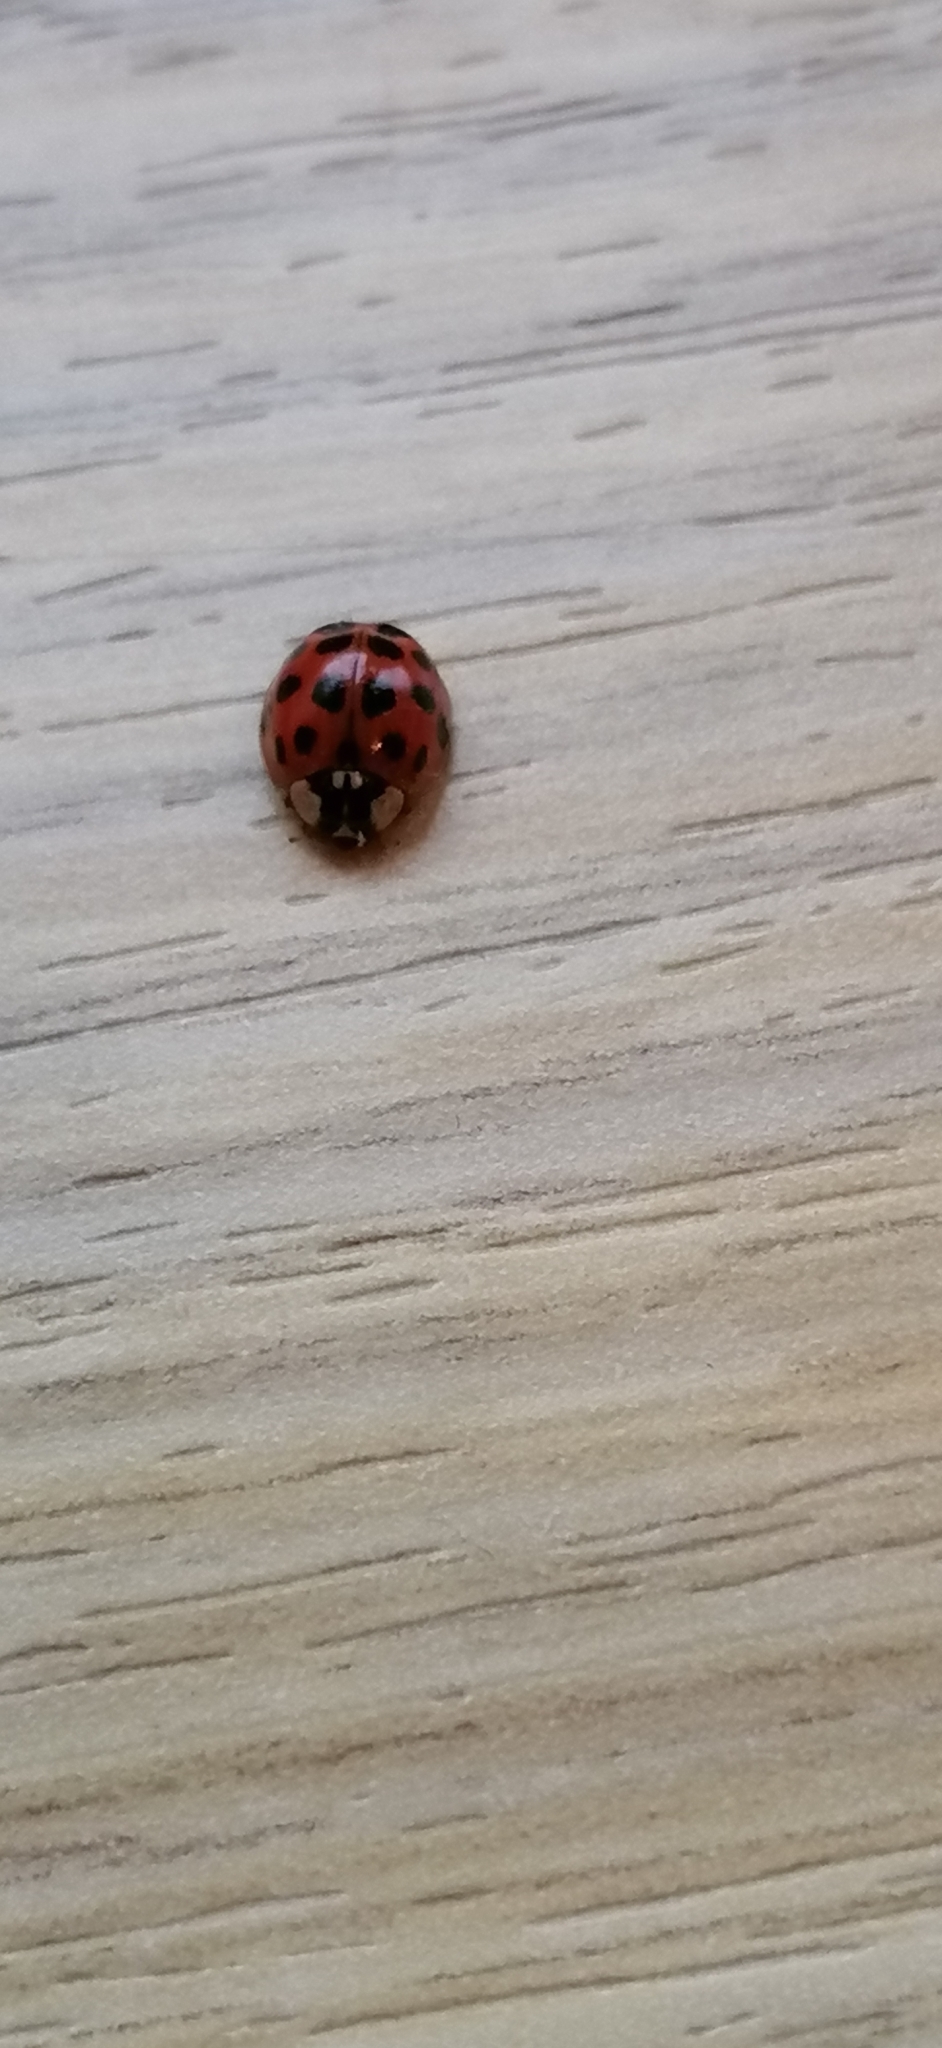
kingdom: Animalia
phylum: Arthropoda
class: Insecta
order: Coleoptera
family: Coccinellidae
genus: Harmonia
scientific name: Harmonia axyridis
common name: Harlequin ladybird
